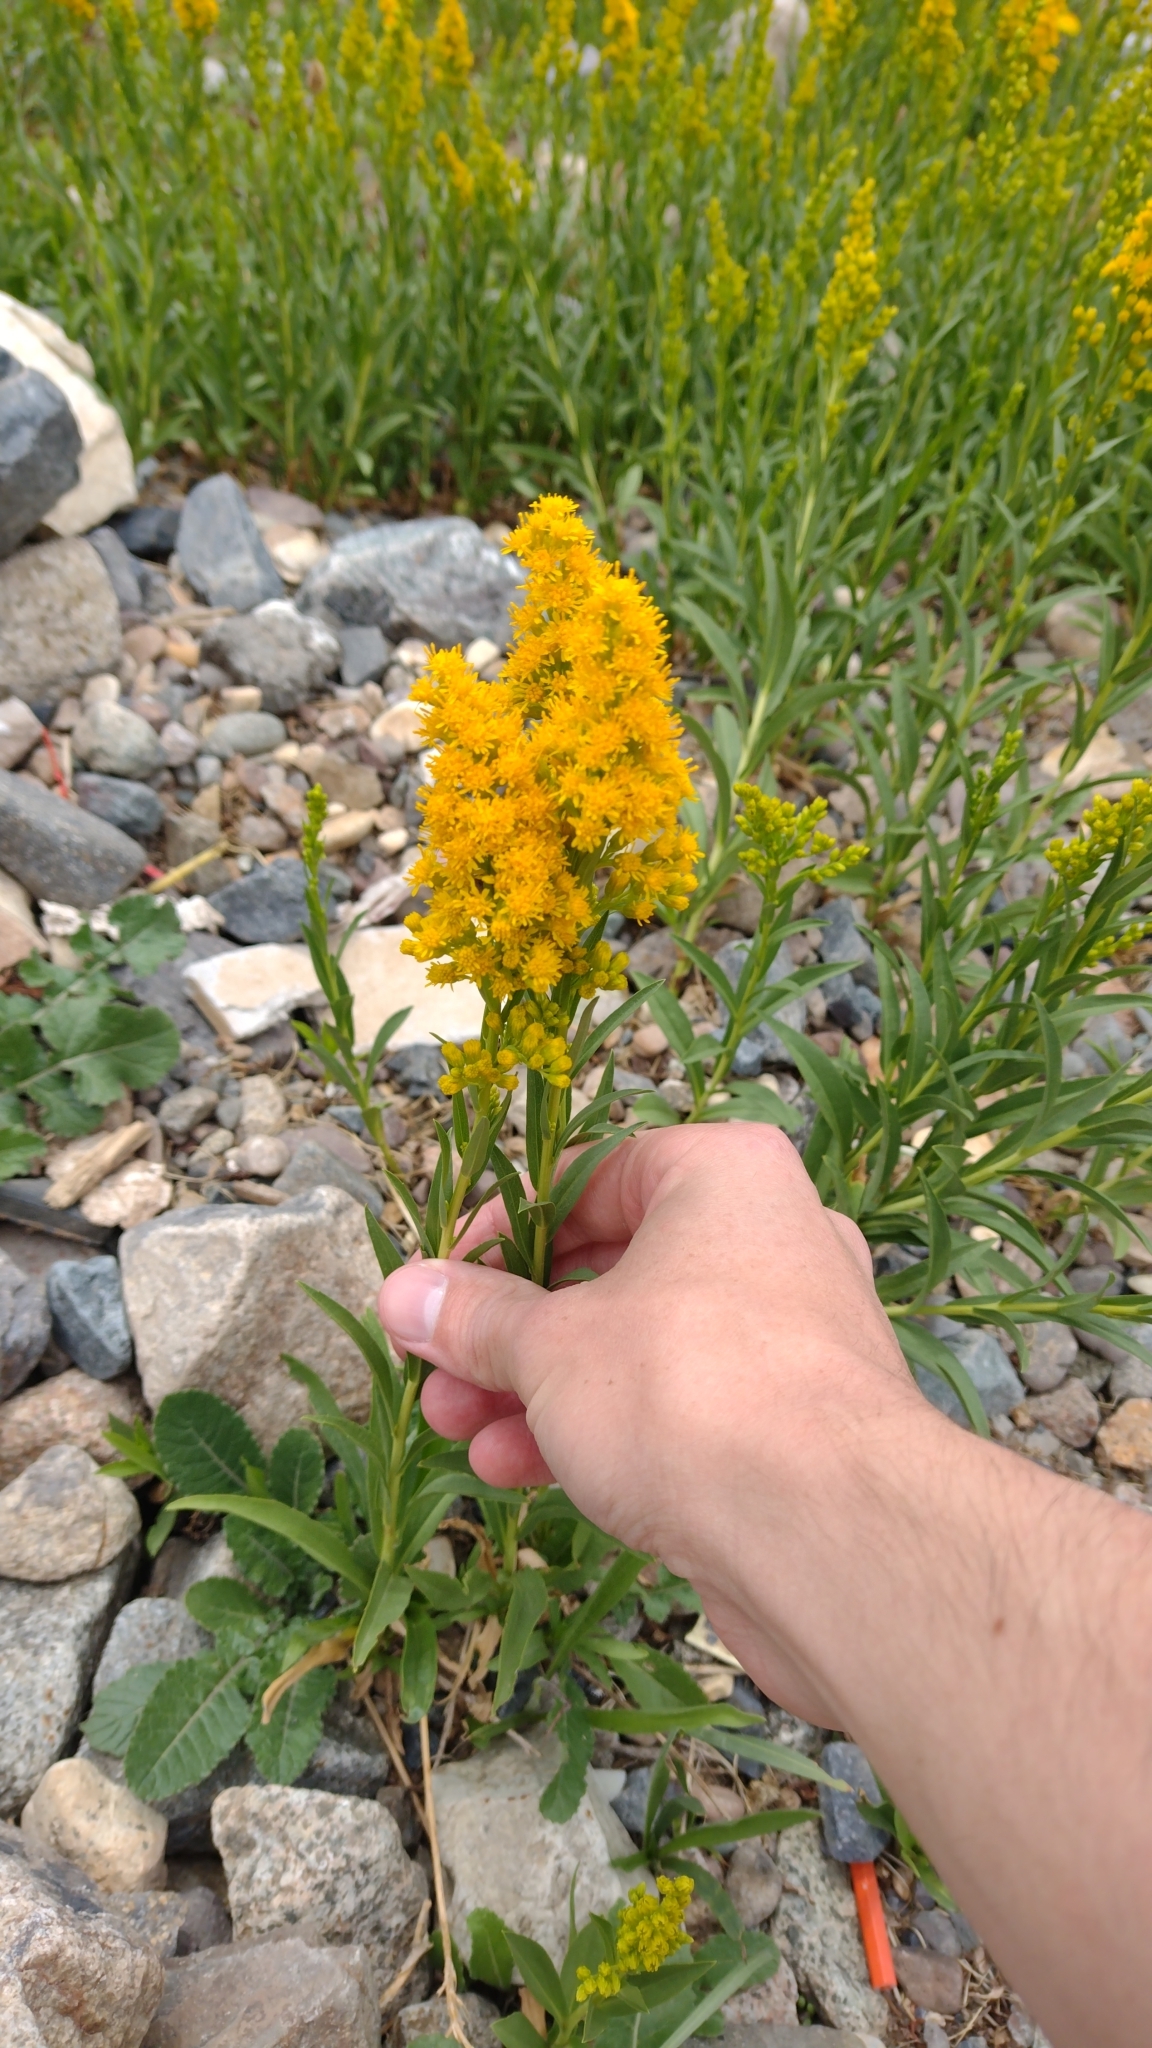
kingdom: Plantae
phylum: Tracheophyta
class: Magnoliopsida
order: Asterales
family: Asteraceae
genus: Solidago
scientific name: Solidago chilensis
